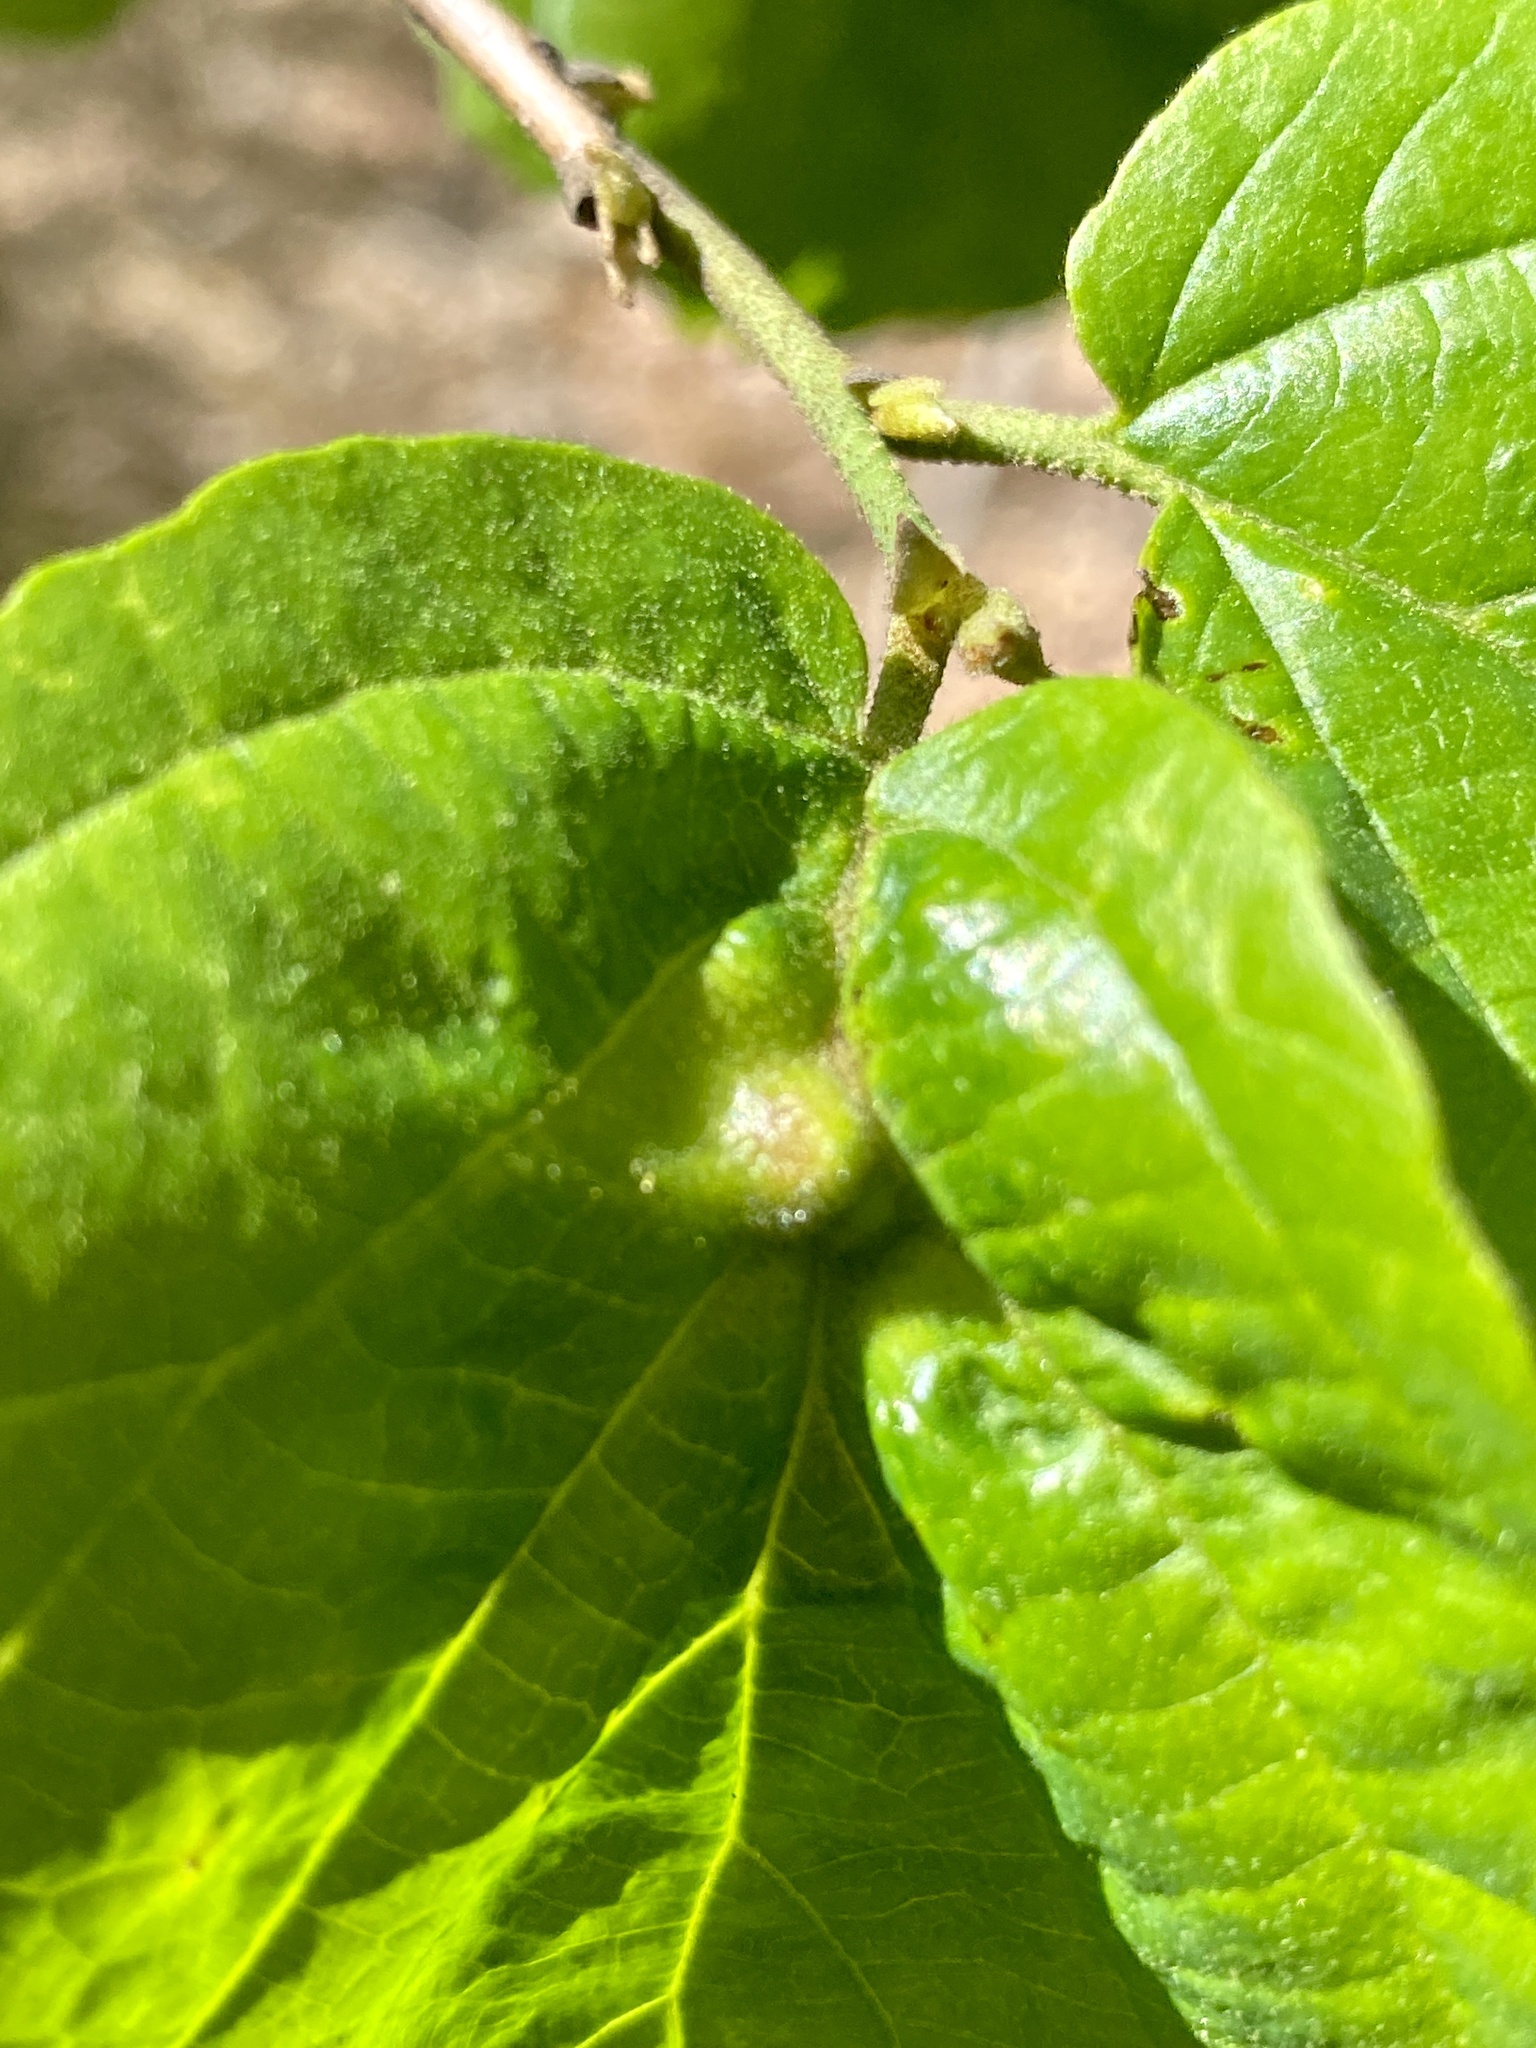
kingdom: Animalia
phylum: Arthropoda
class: Insecta
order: Hemiptera
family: Aphididae
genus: Hormaphis
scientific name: Hormaphis hamamelidis
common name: Witch-hazel cone gall aphid
